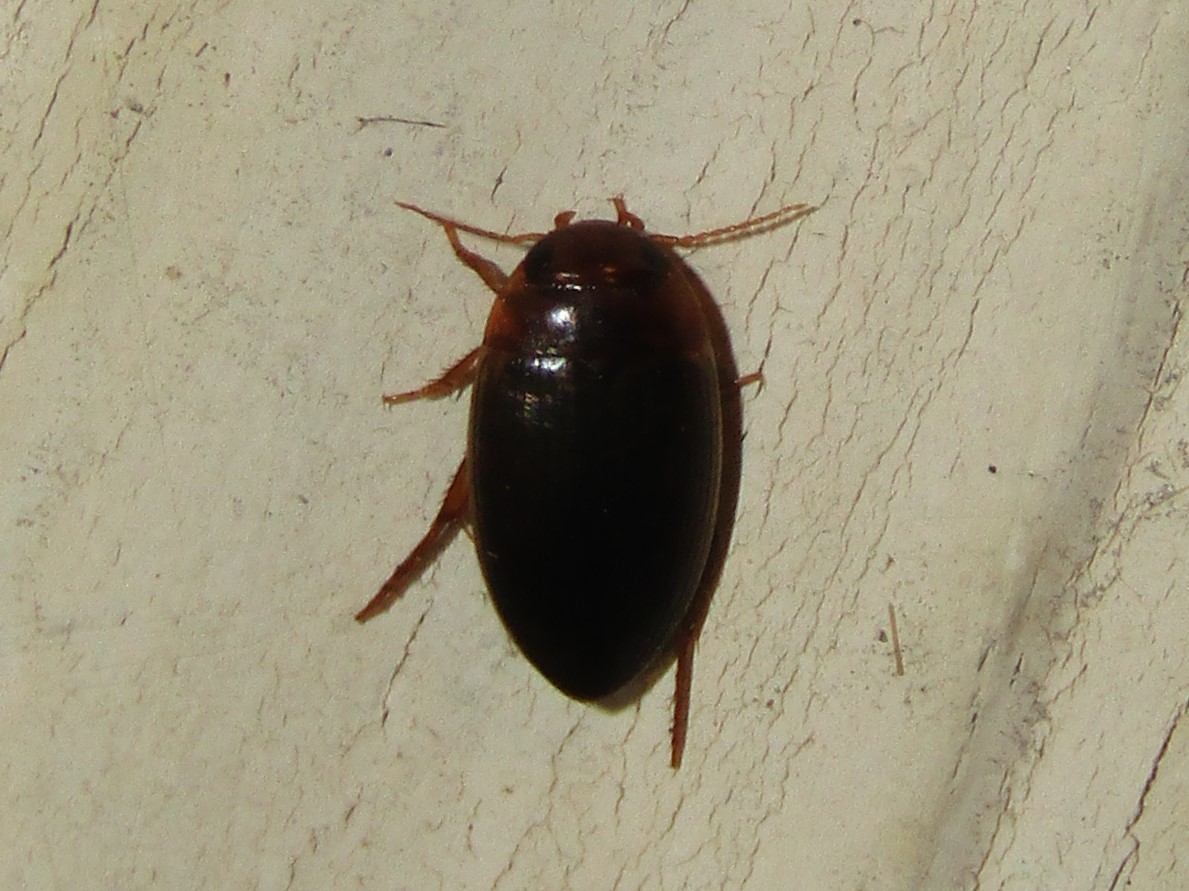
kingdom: Animalia
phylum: Arthropoda
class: Insecta
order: Coleoptera
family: Dytiscidae
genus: Copelatus
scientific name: Copelatus
